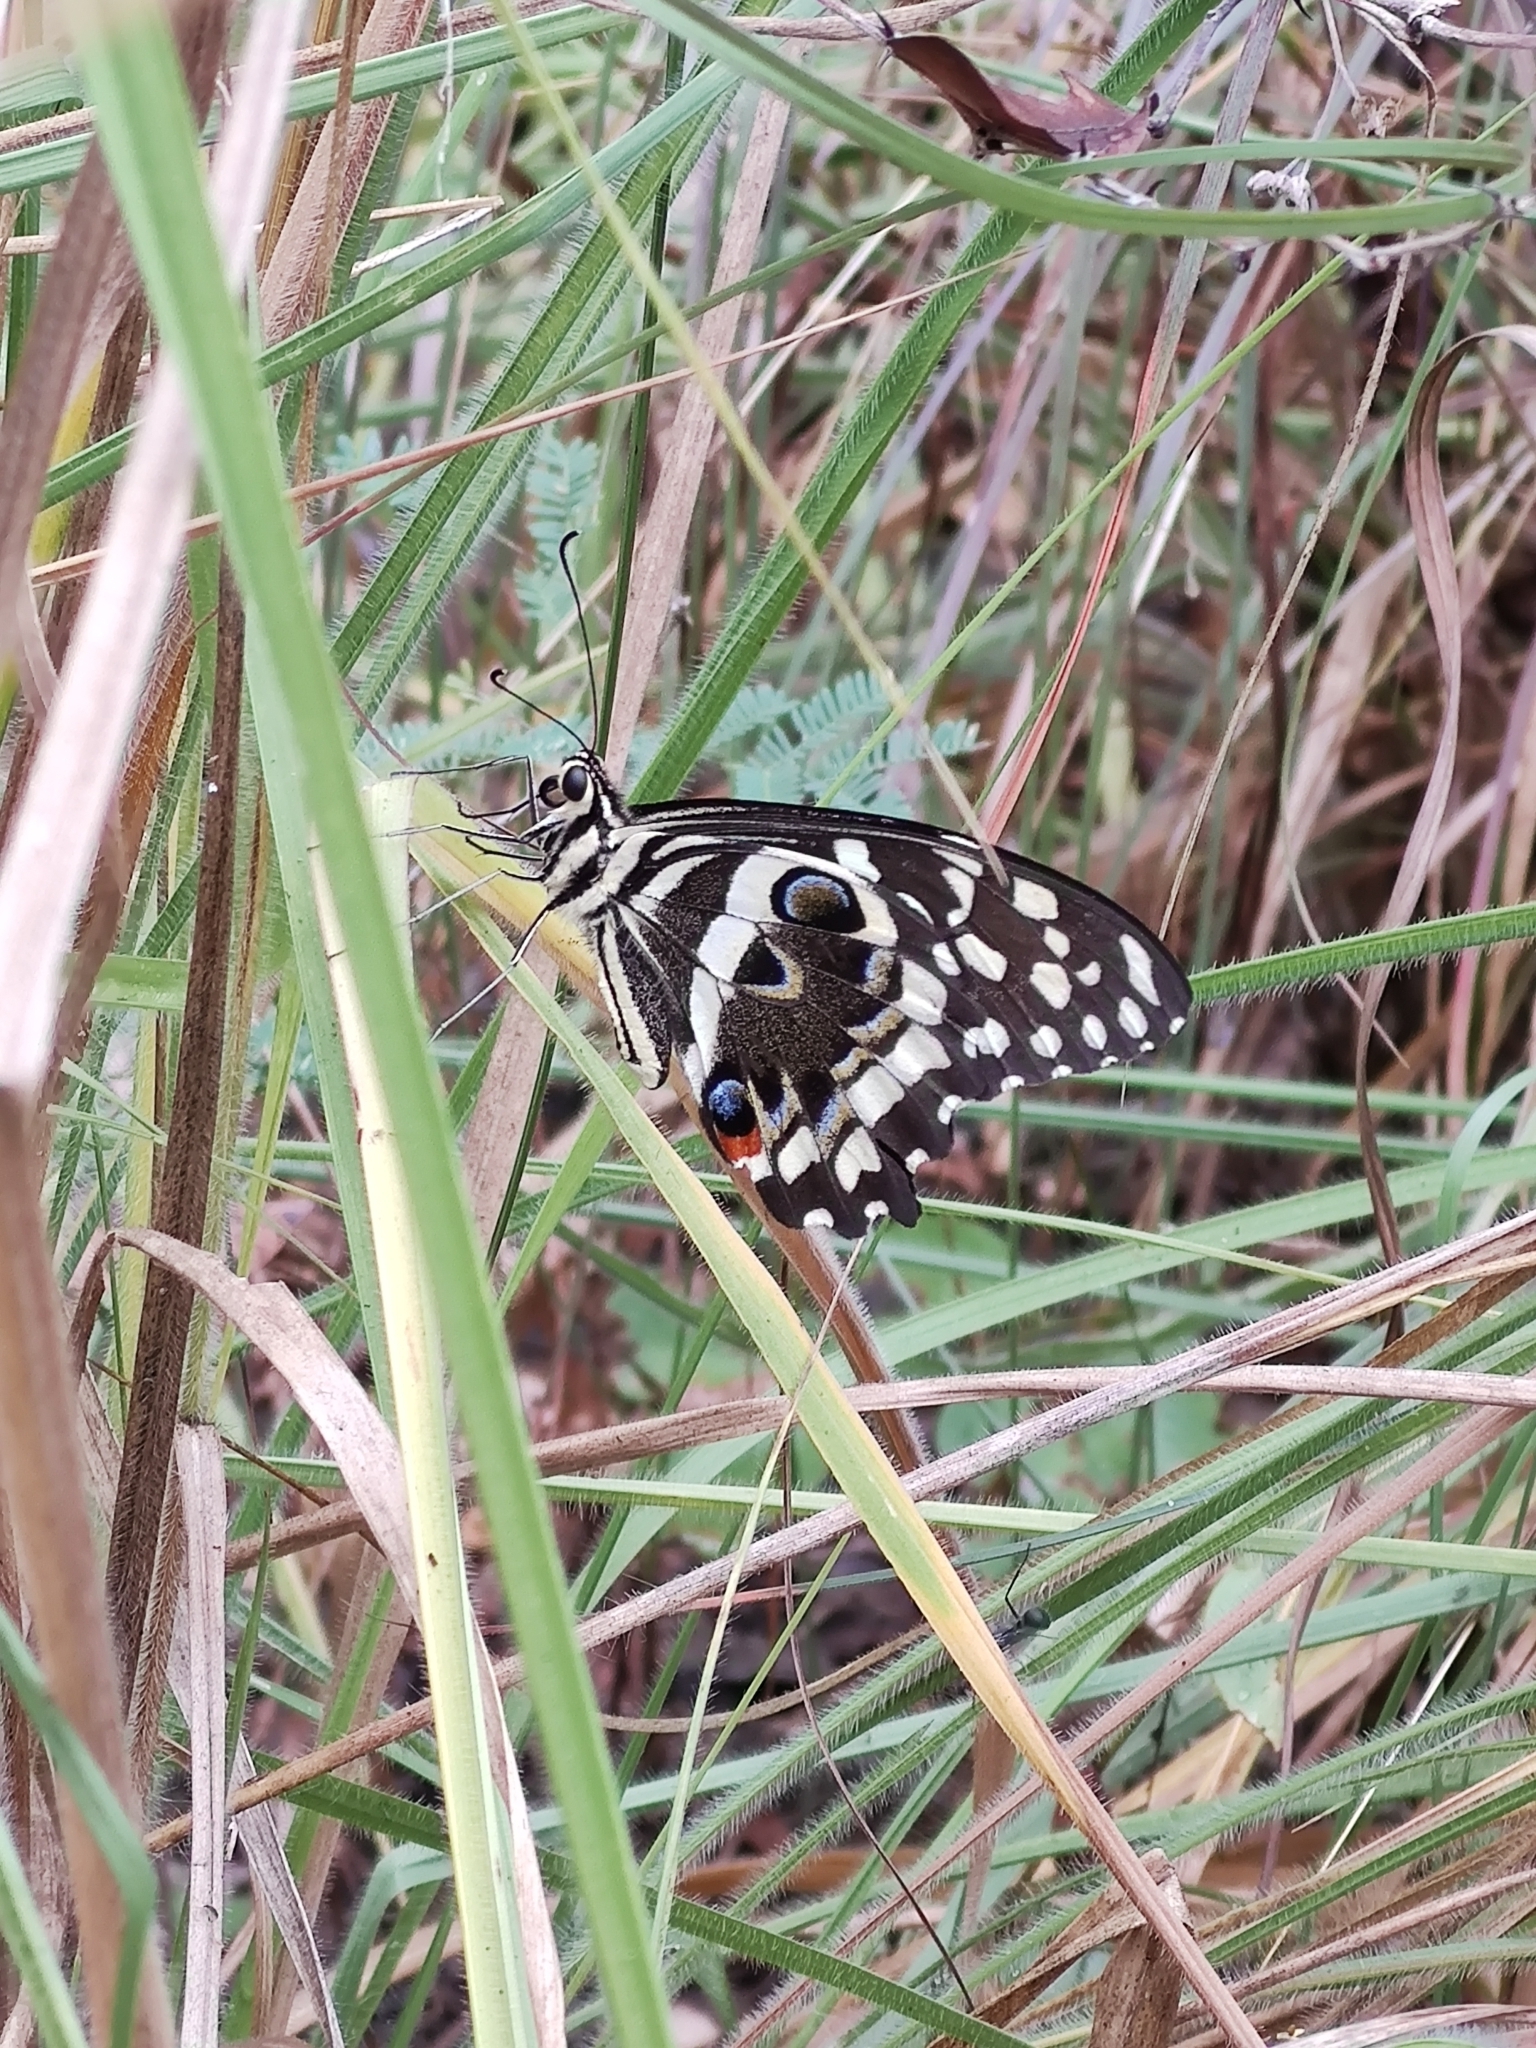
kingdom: Animalia
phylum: Arthropoda
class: Insecta
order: Lepidoptera
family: Papilionidae
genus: Papilio
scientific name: Papilio demodocus
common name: Christmas butterfly
